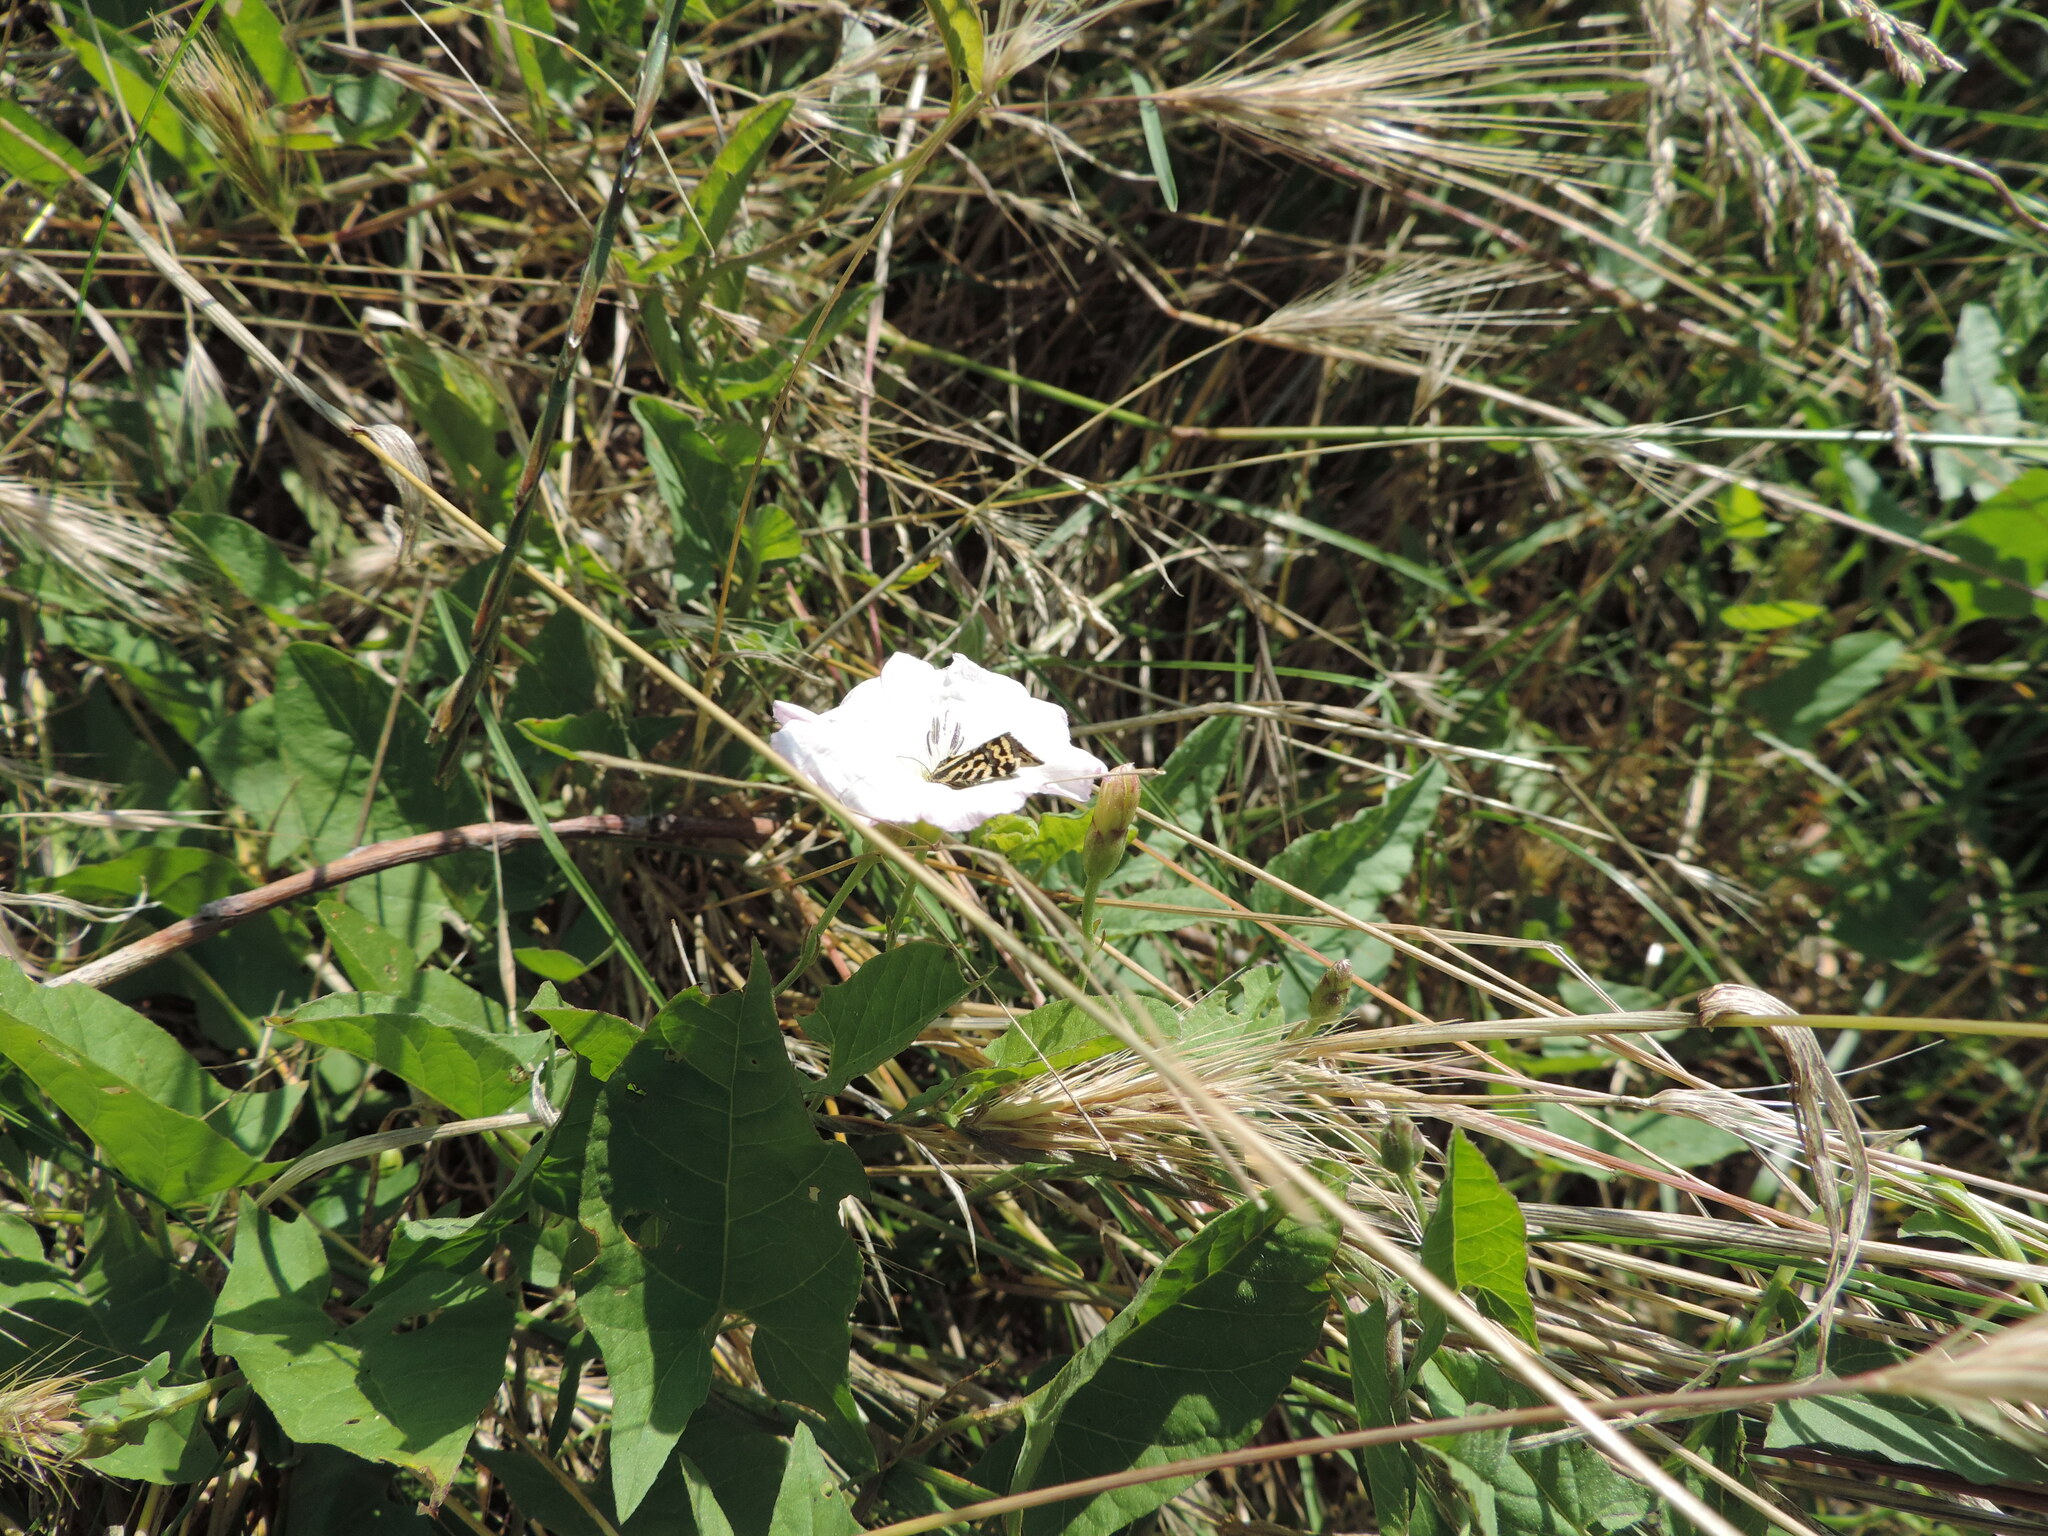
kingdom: Animalia
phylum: Arthropoda
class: Insecta
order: Lepidoptera
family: Noctuidae
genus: Acontia
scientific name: Acontia trabealis
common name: Spotted sulphur
